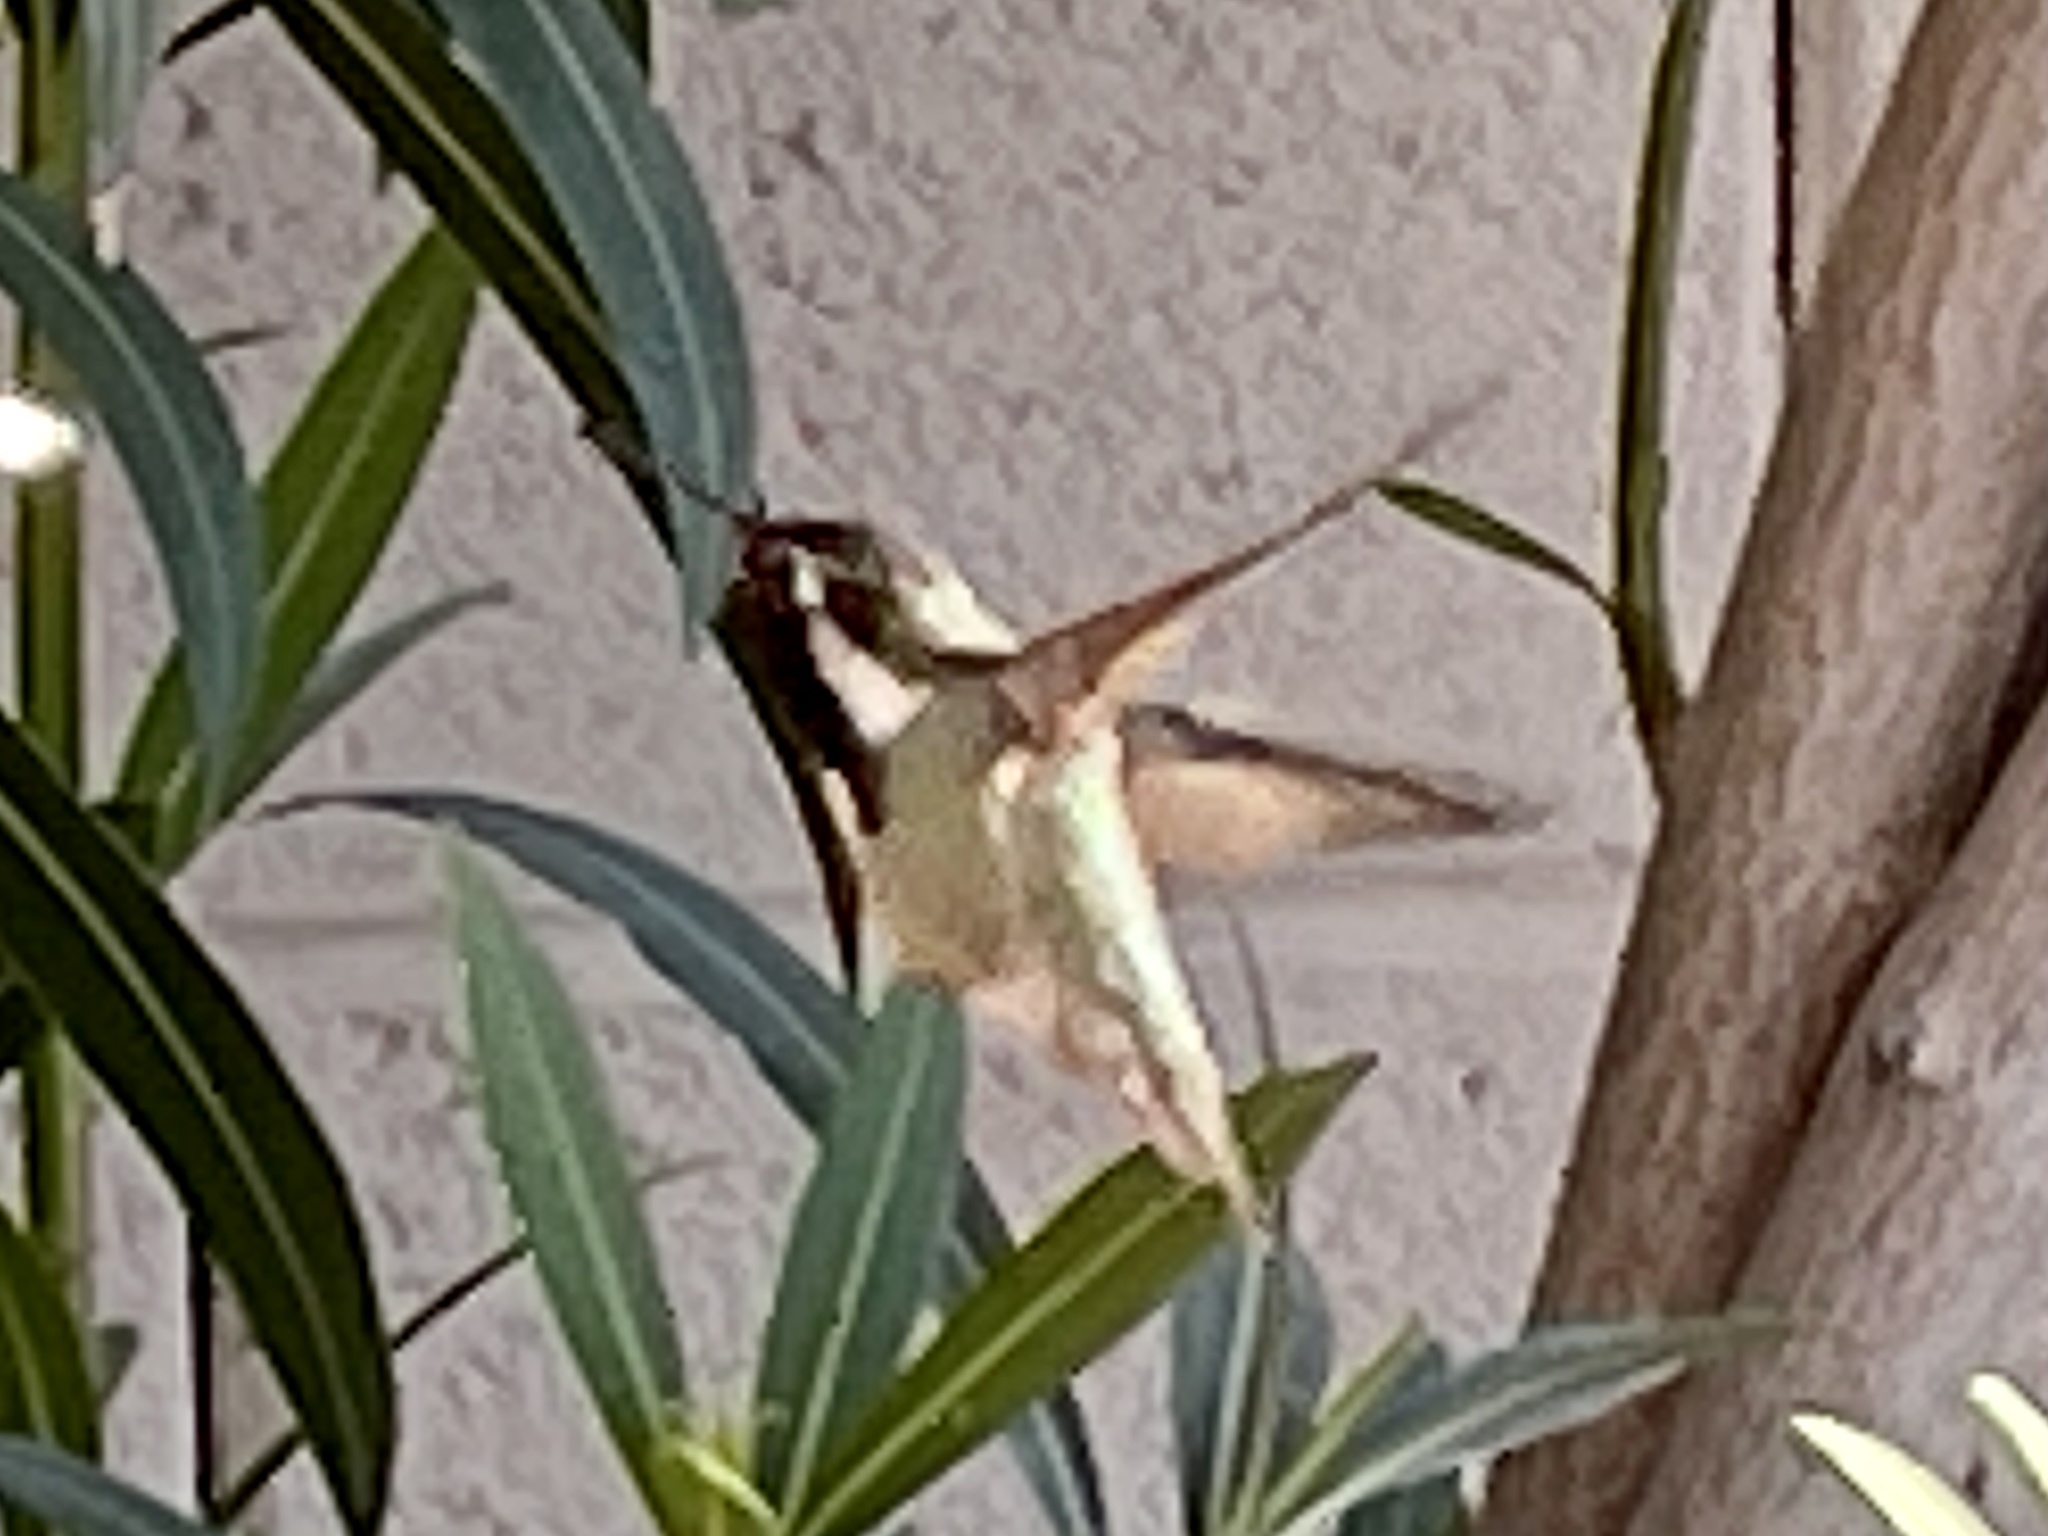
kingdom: Animalia
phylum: Chordata
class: Aves
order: Apodiformes
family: Trochilidae
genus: Calypte
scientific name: Calypte costae
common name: Costa's hummingbird
